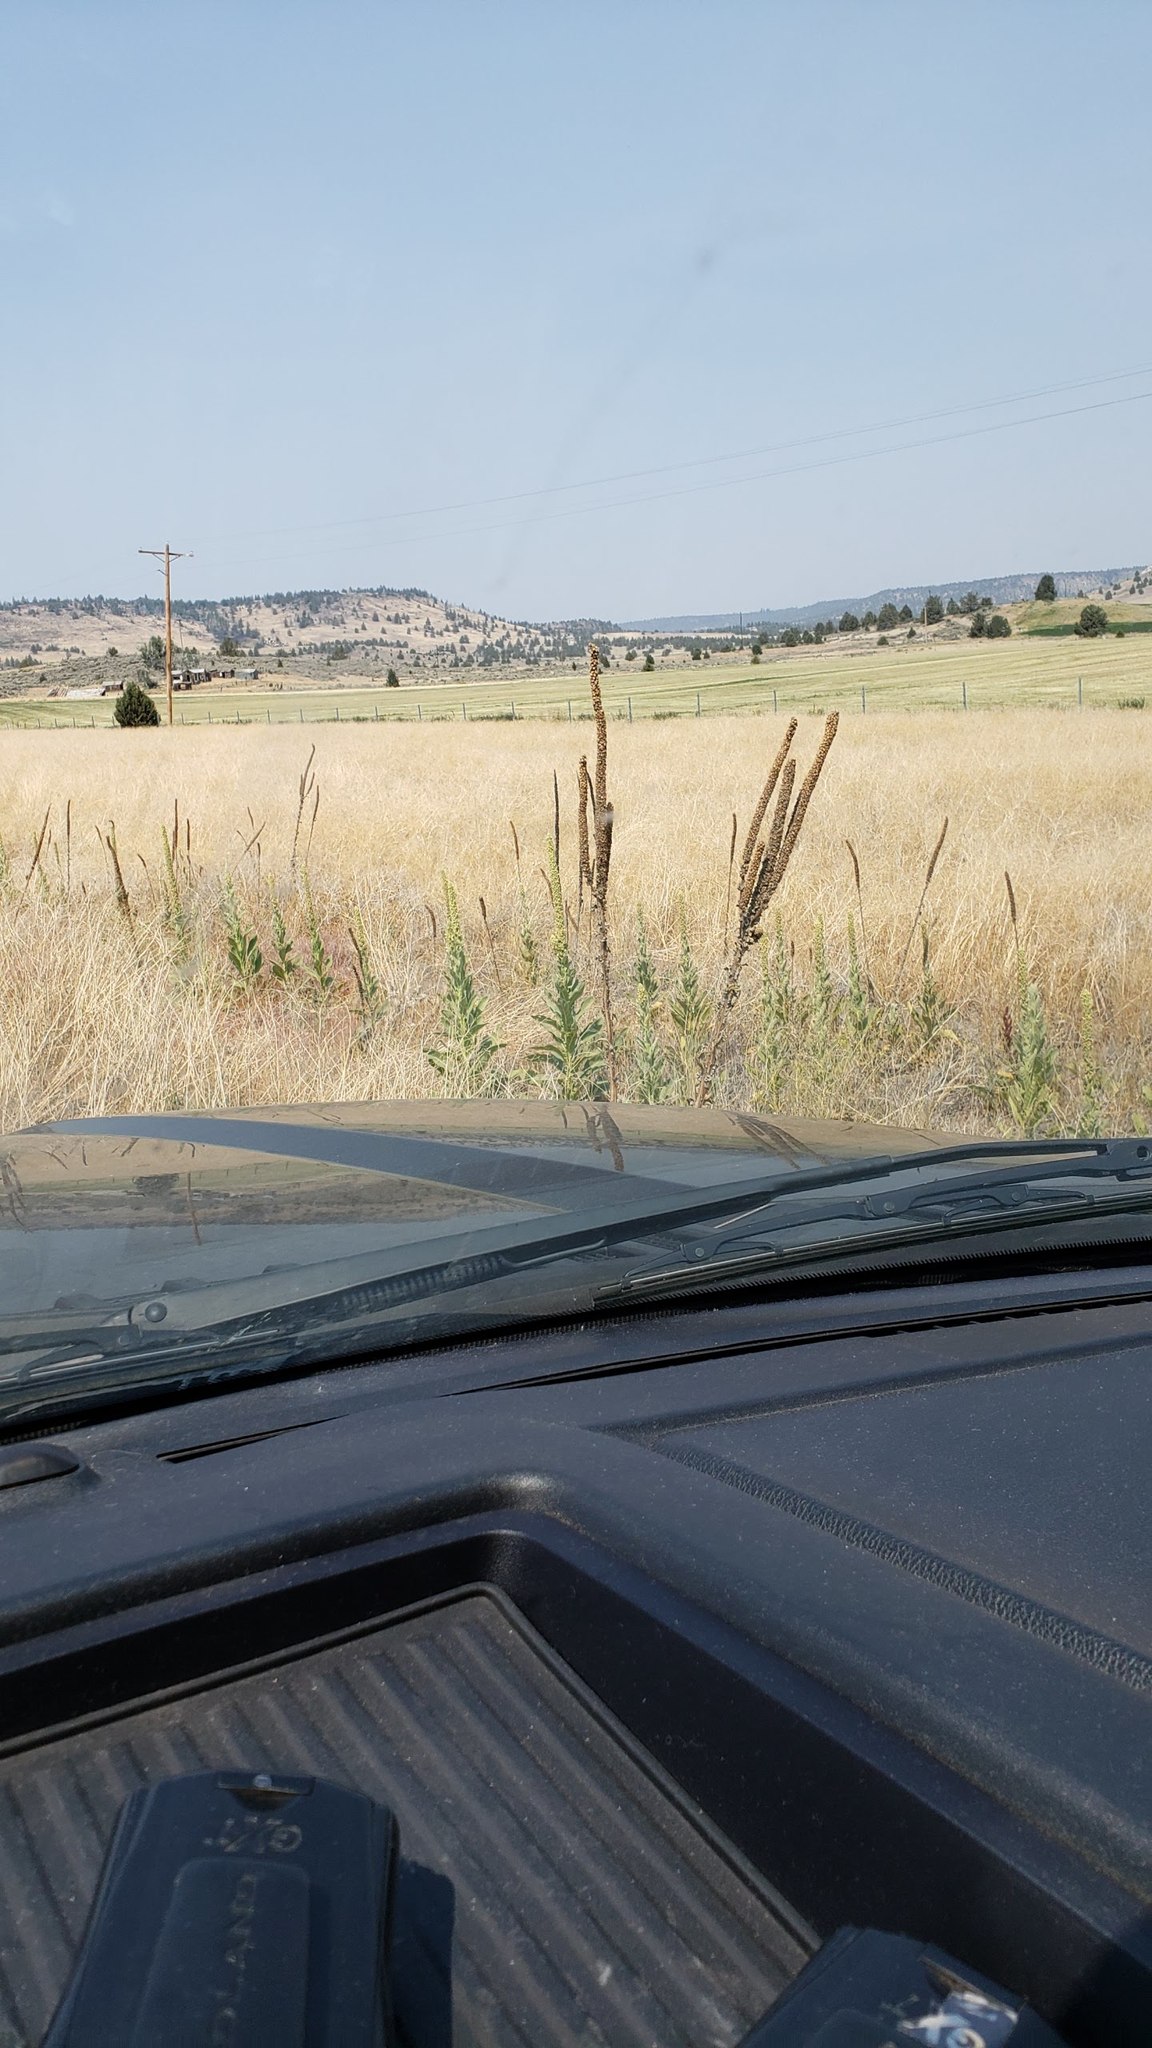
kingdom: Plantae
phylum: Tracheophyta
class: Magnoliopsida
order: Lamiales
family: Scrophulariaceae
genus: Verbascum
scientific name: Verbascum thapsus
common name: Common mullein
